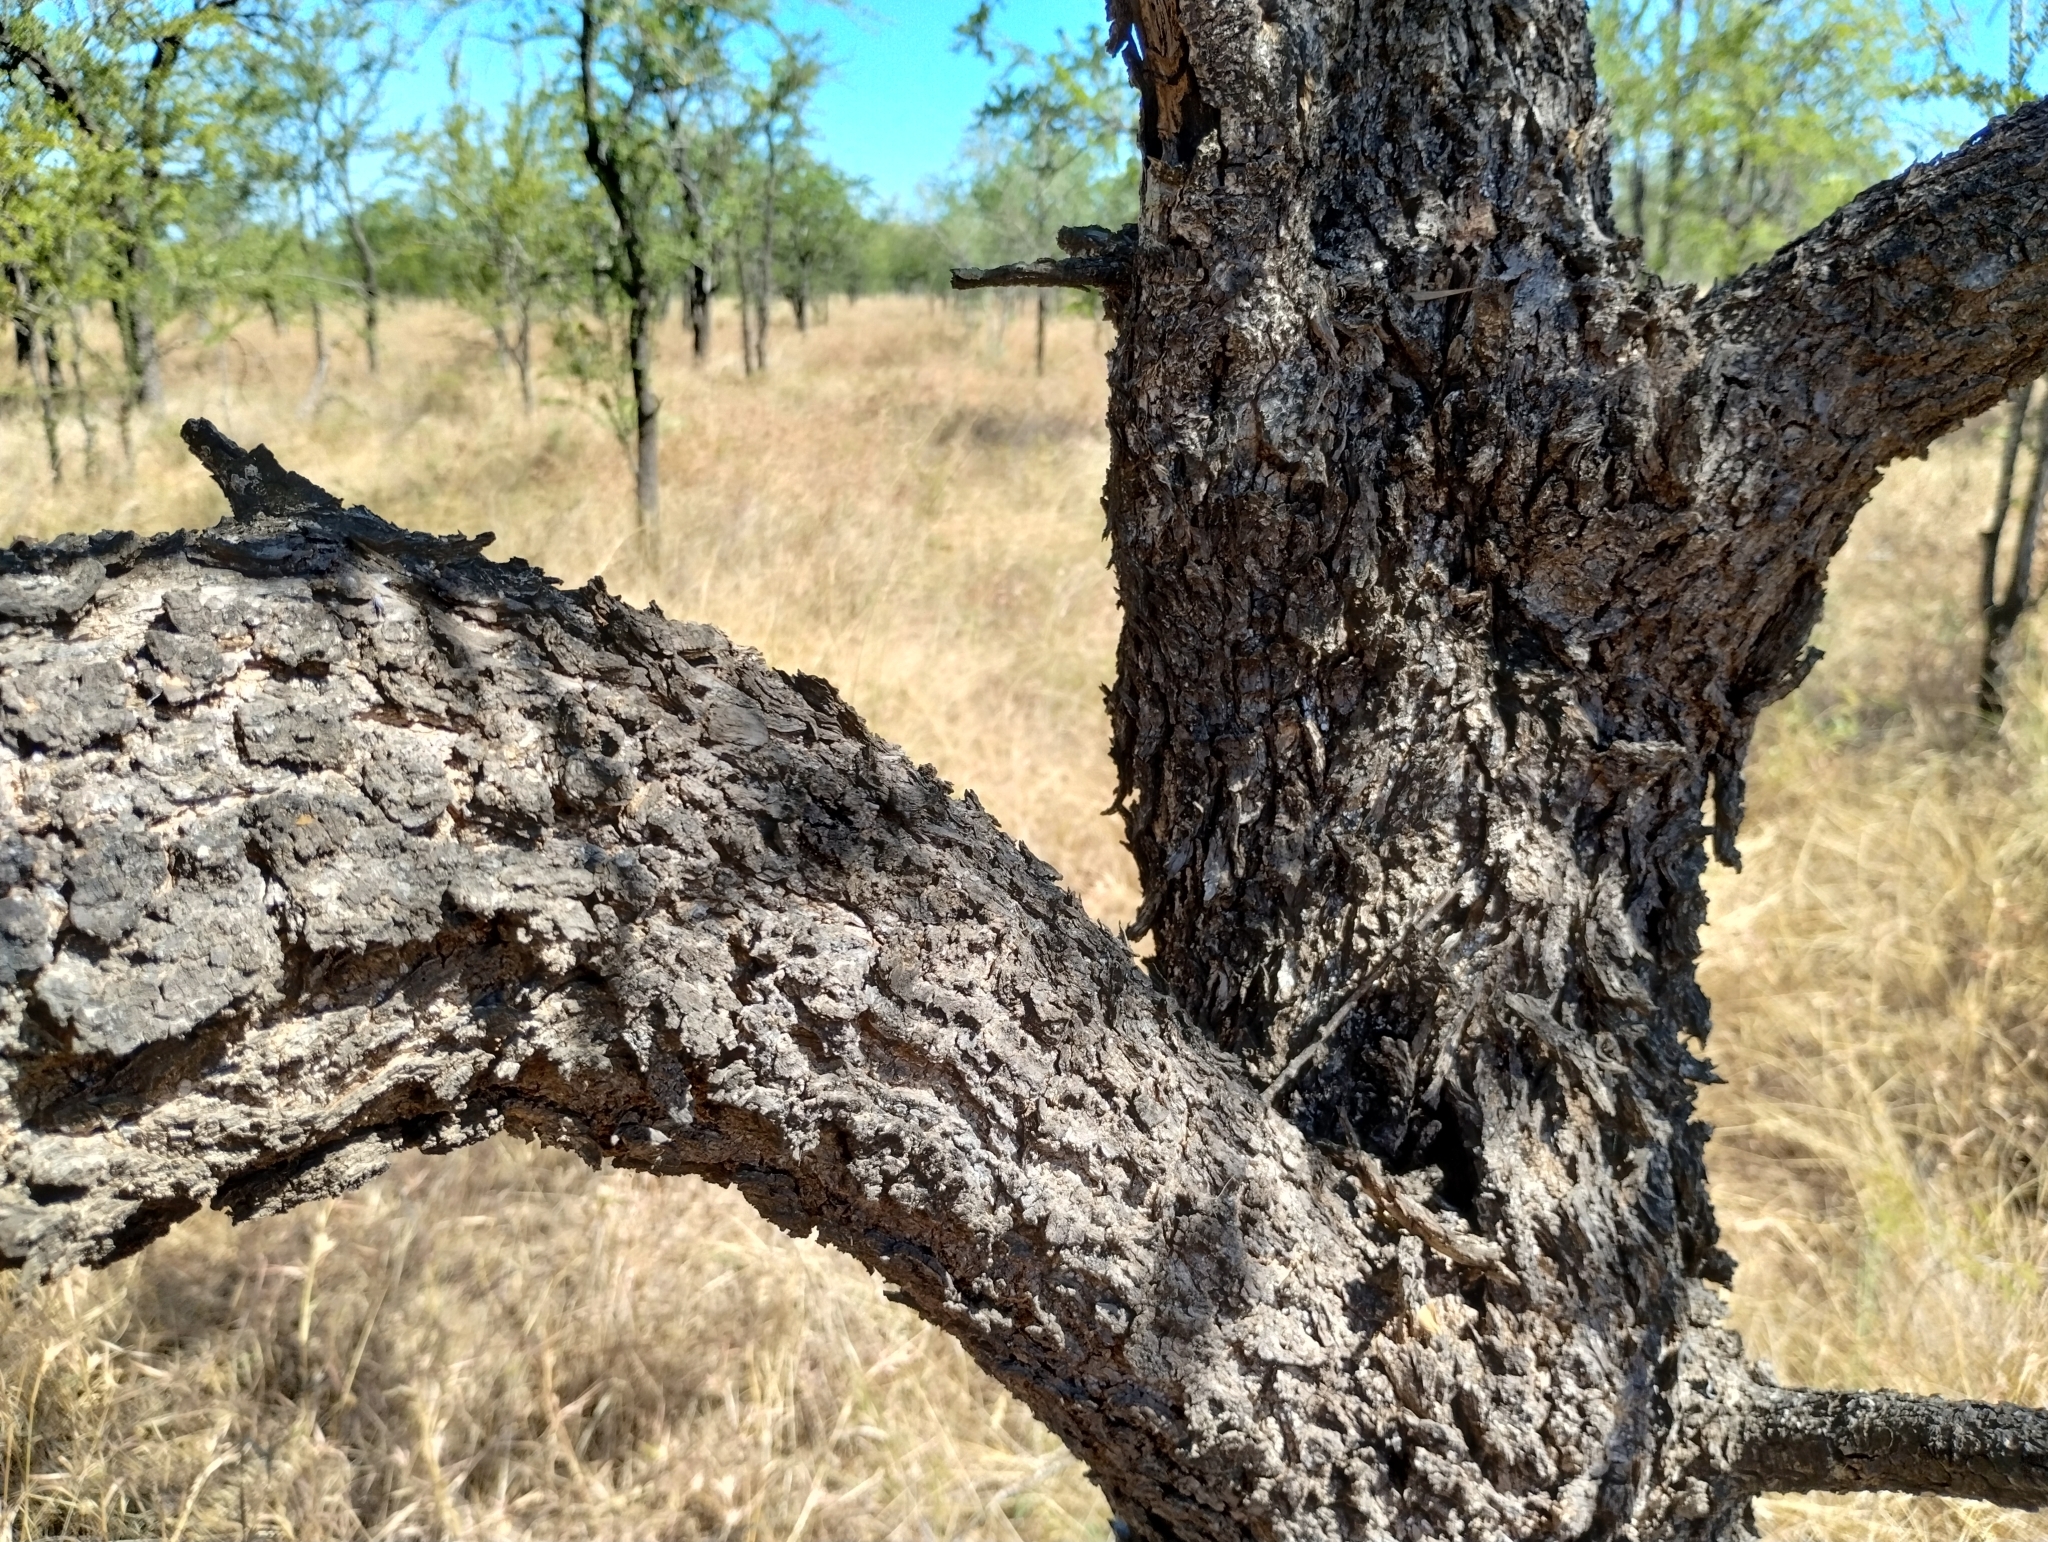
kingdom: Plantae
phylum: Tracheophyta
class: Magnoliopsida
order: Malpighiales
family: Euphorbiaceae
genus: Excoecaria
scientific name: Excoecaria parvifolia
